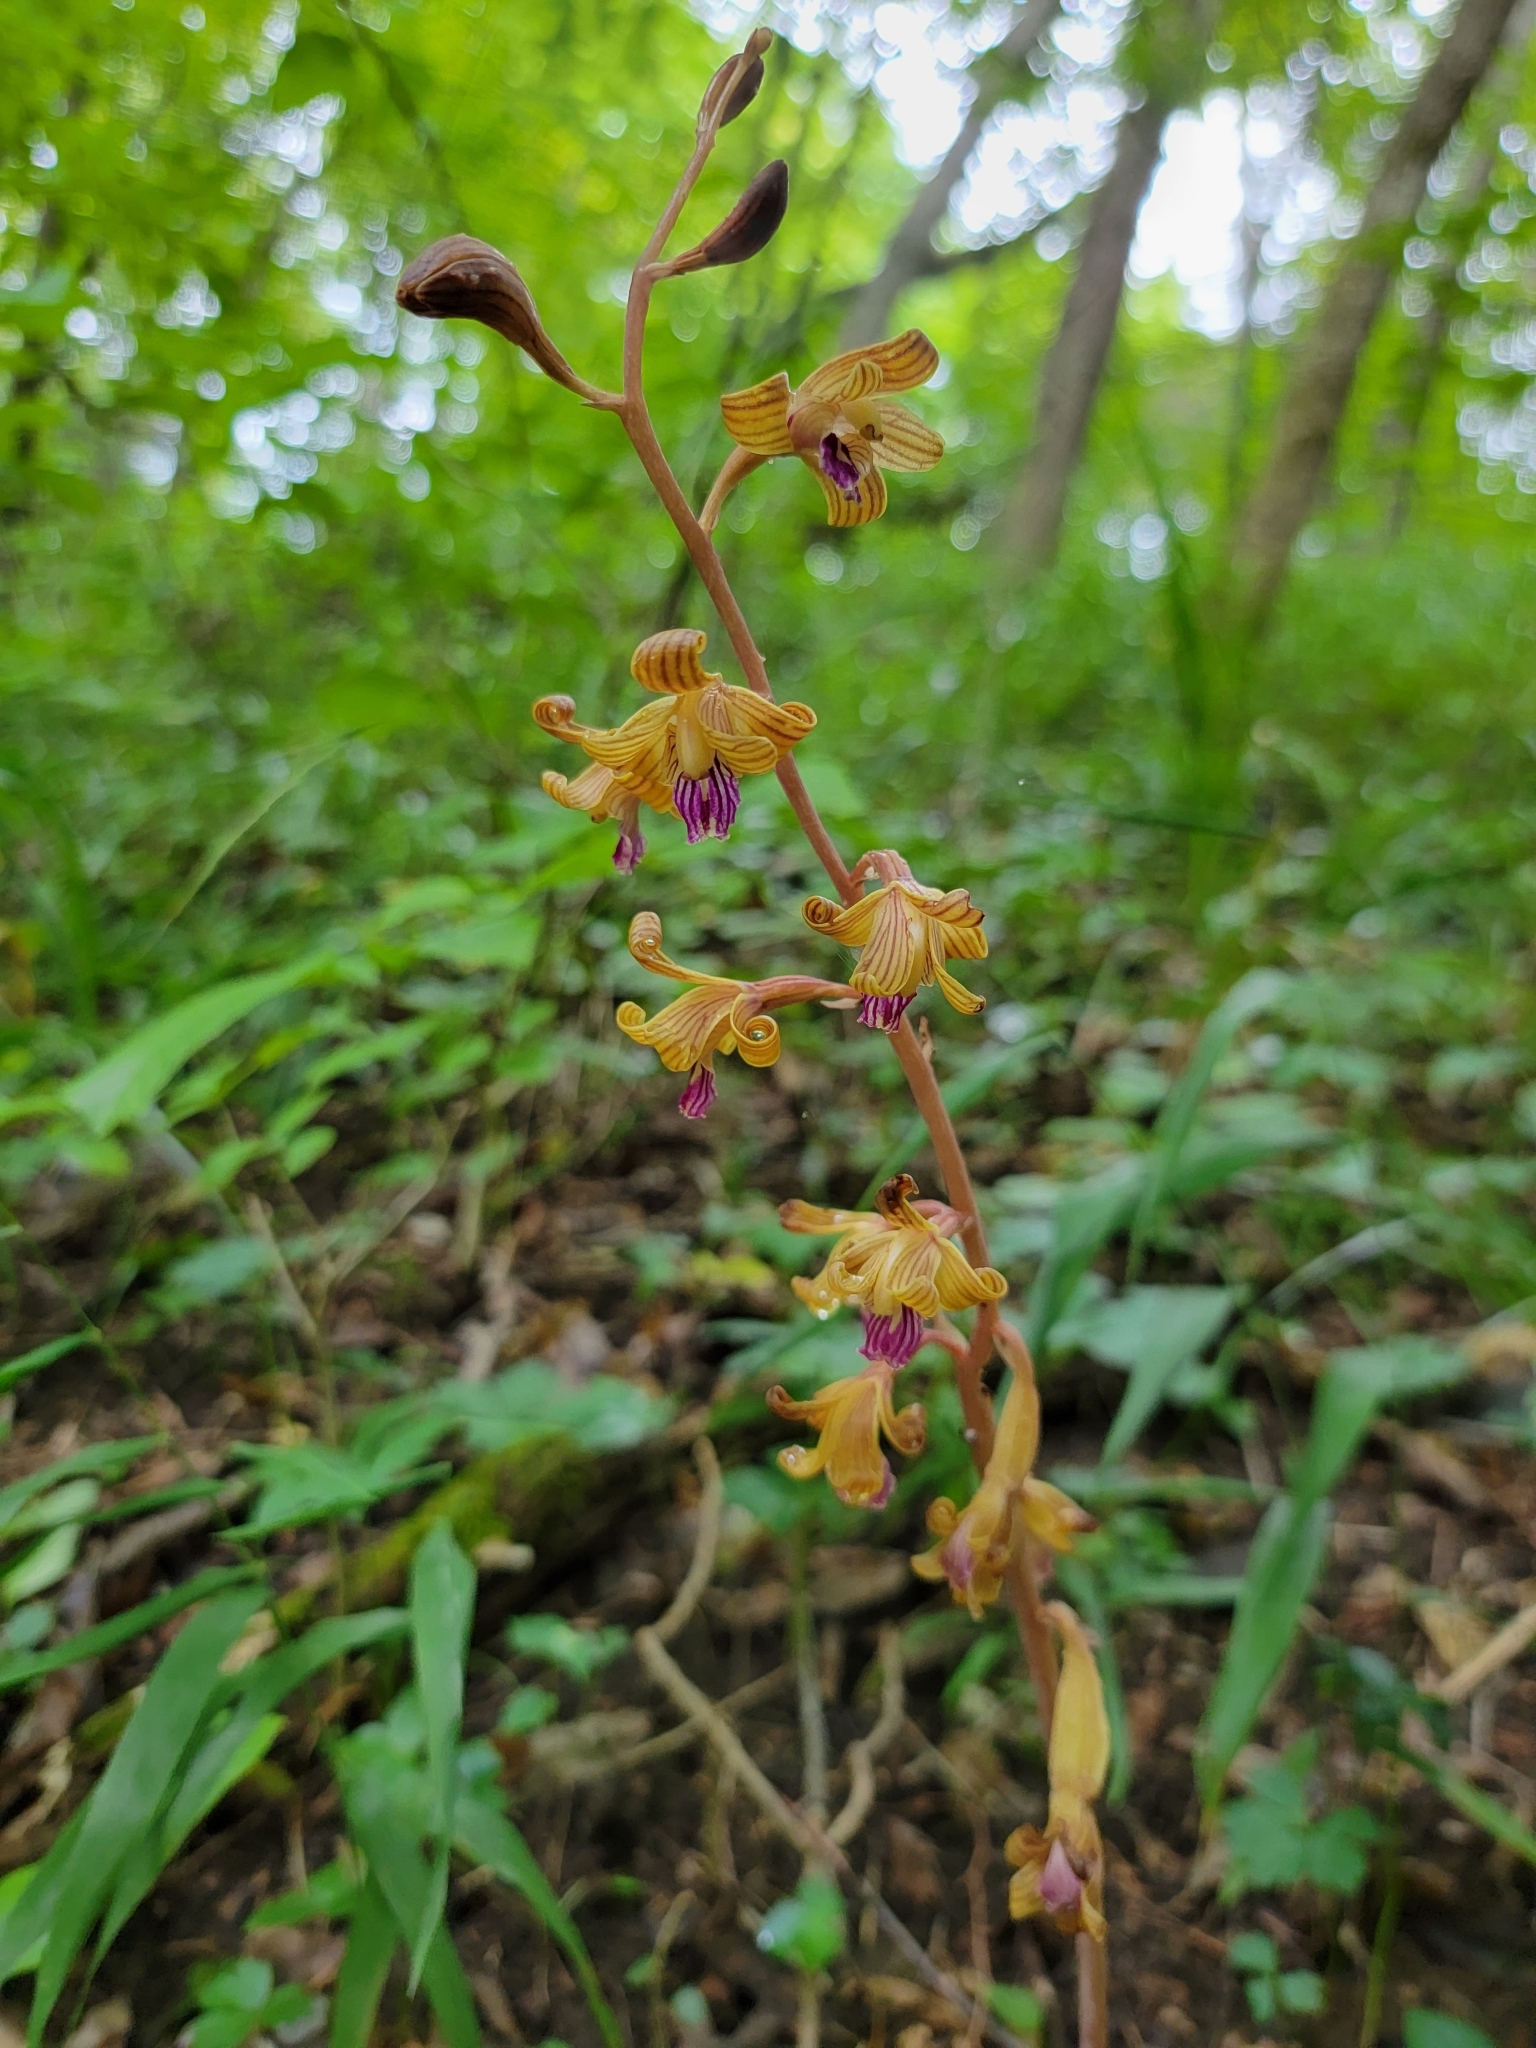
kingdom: Plantae
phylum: Tracheophyta
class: Liliopsida
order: Asparagales
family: Orchidaceae
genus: Bletia
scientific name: Bletia spicata
